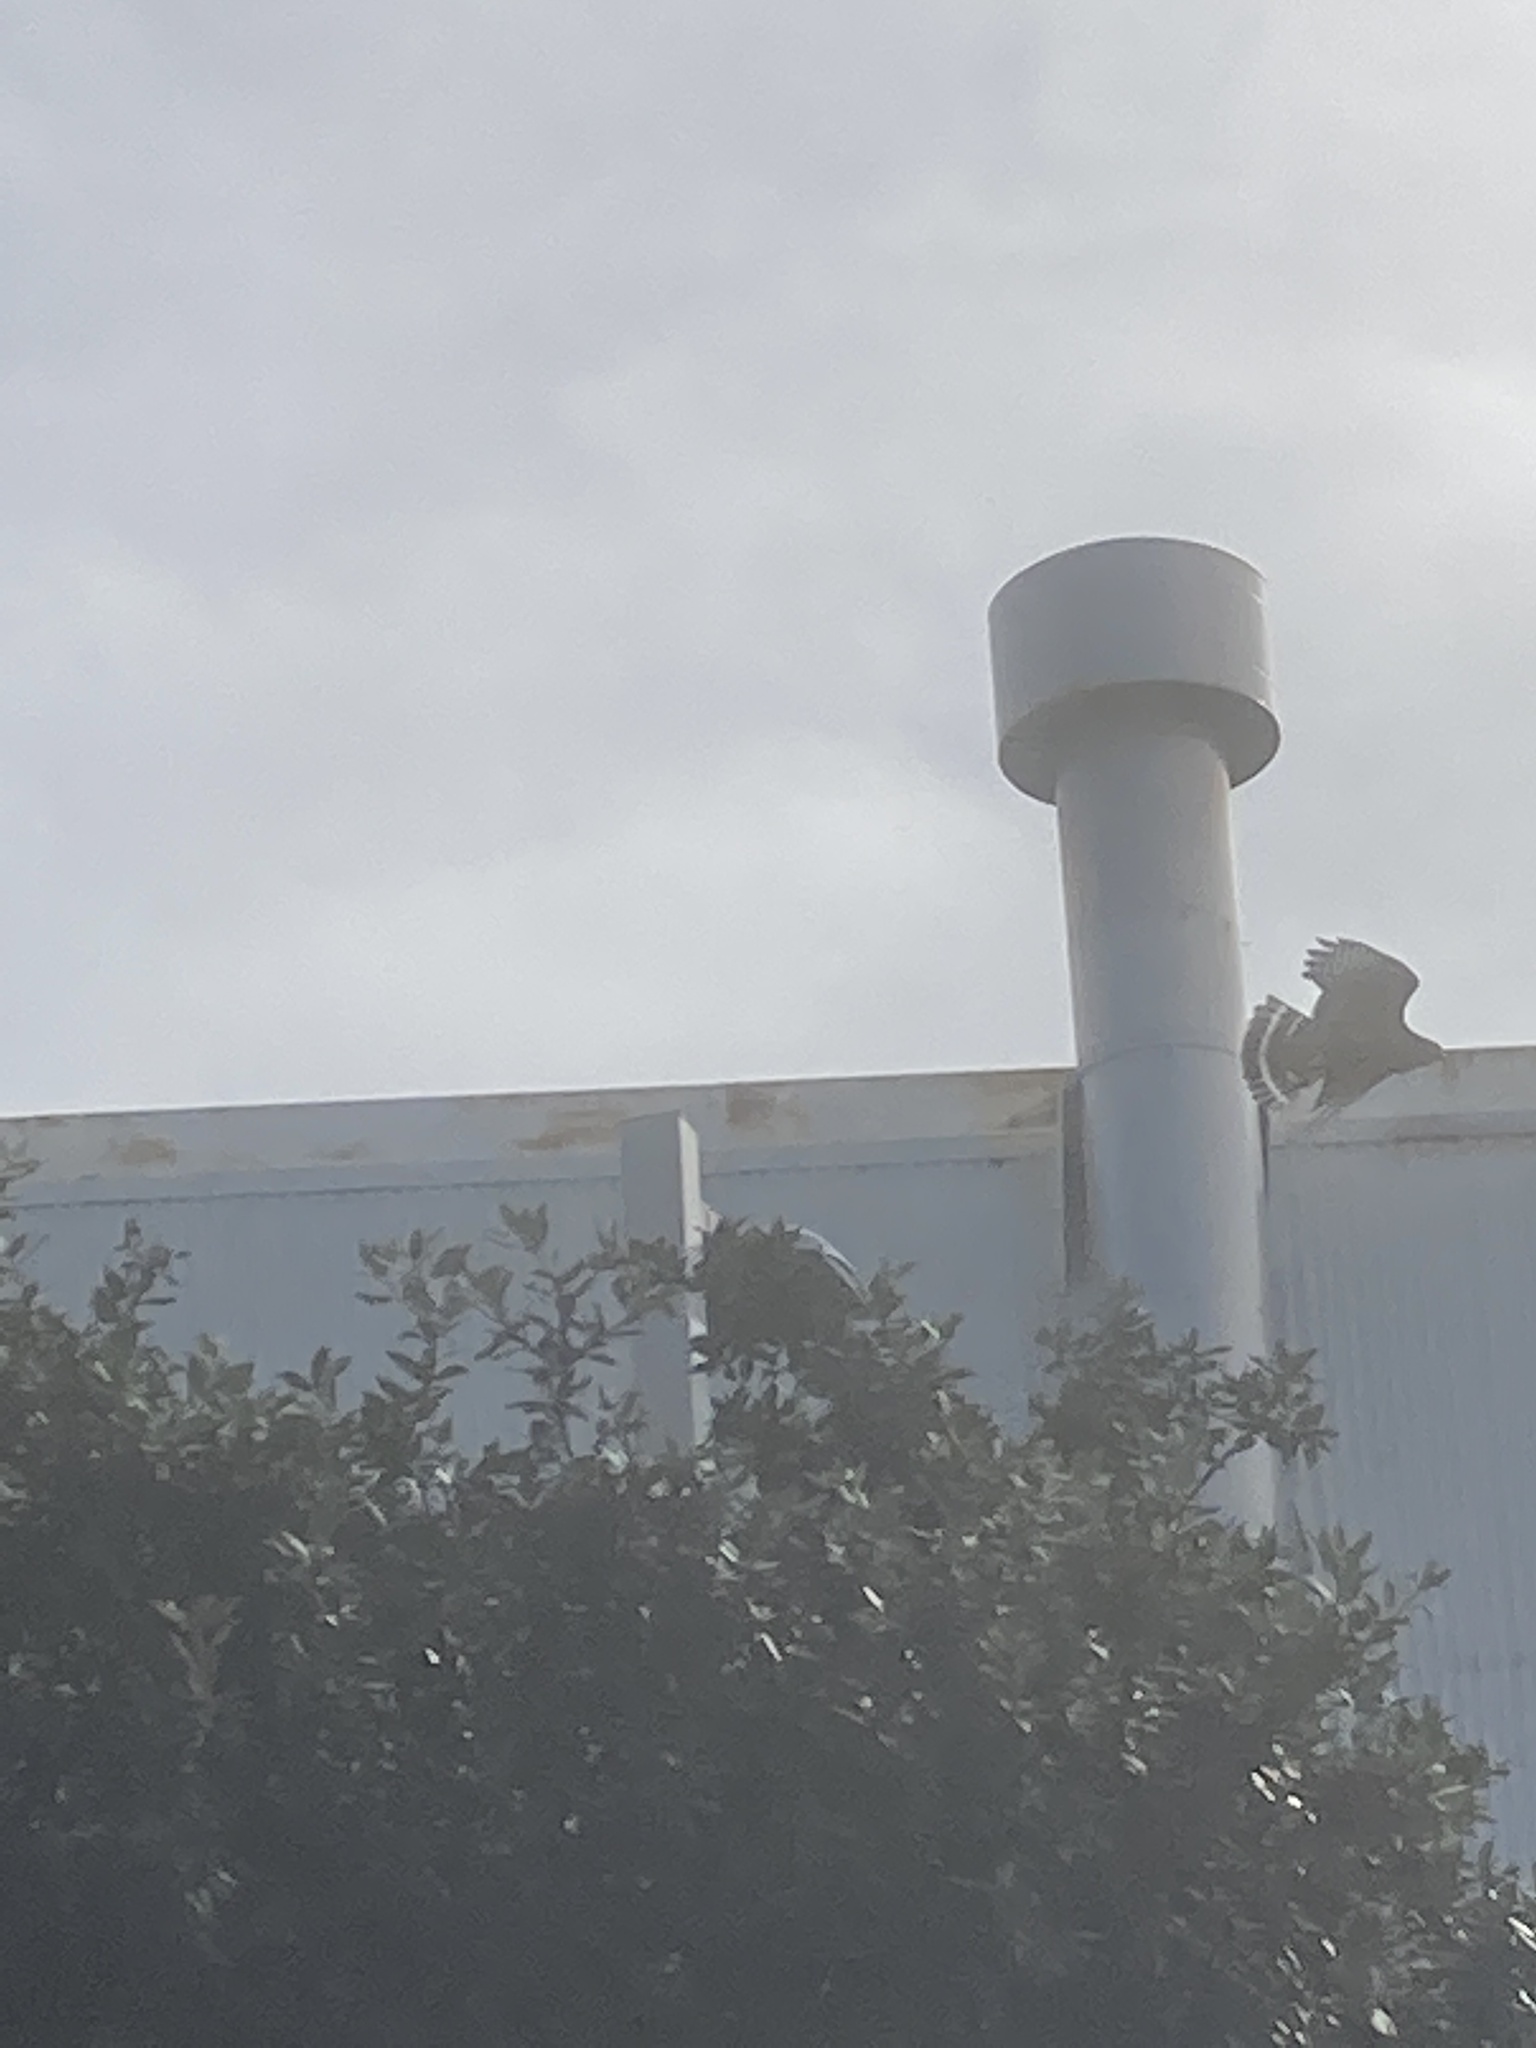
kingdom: Animalia
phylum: Chordata
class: Aves
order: Accipitriformes
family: Accipitridae
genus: Buteo
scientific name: Buteo lineatus
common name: Red-shouldered hawk
